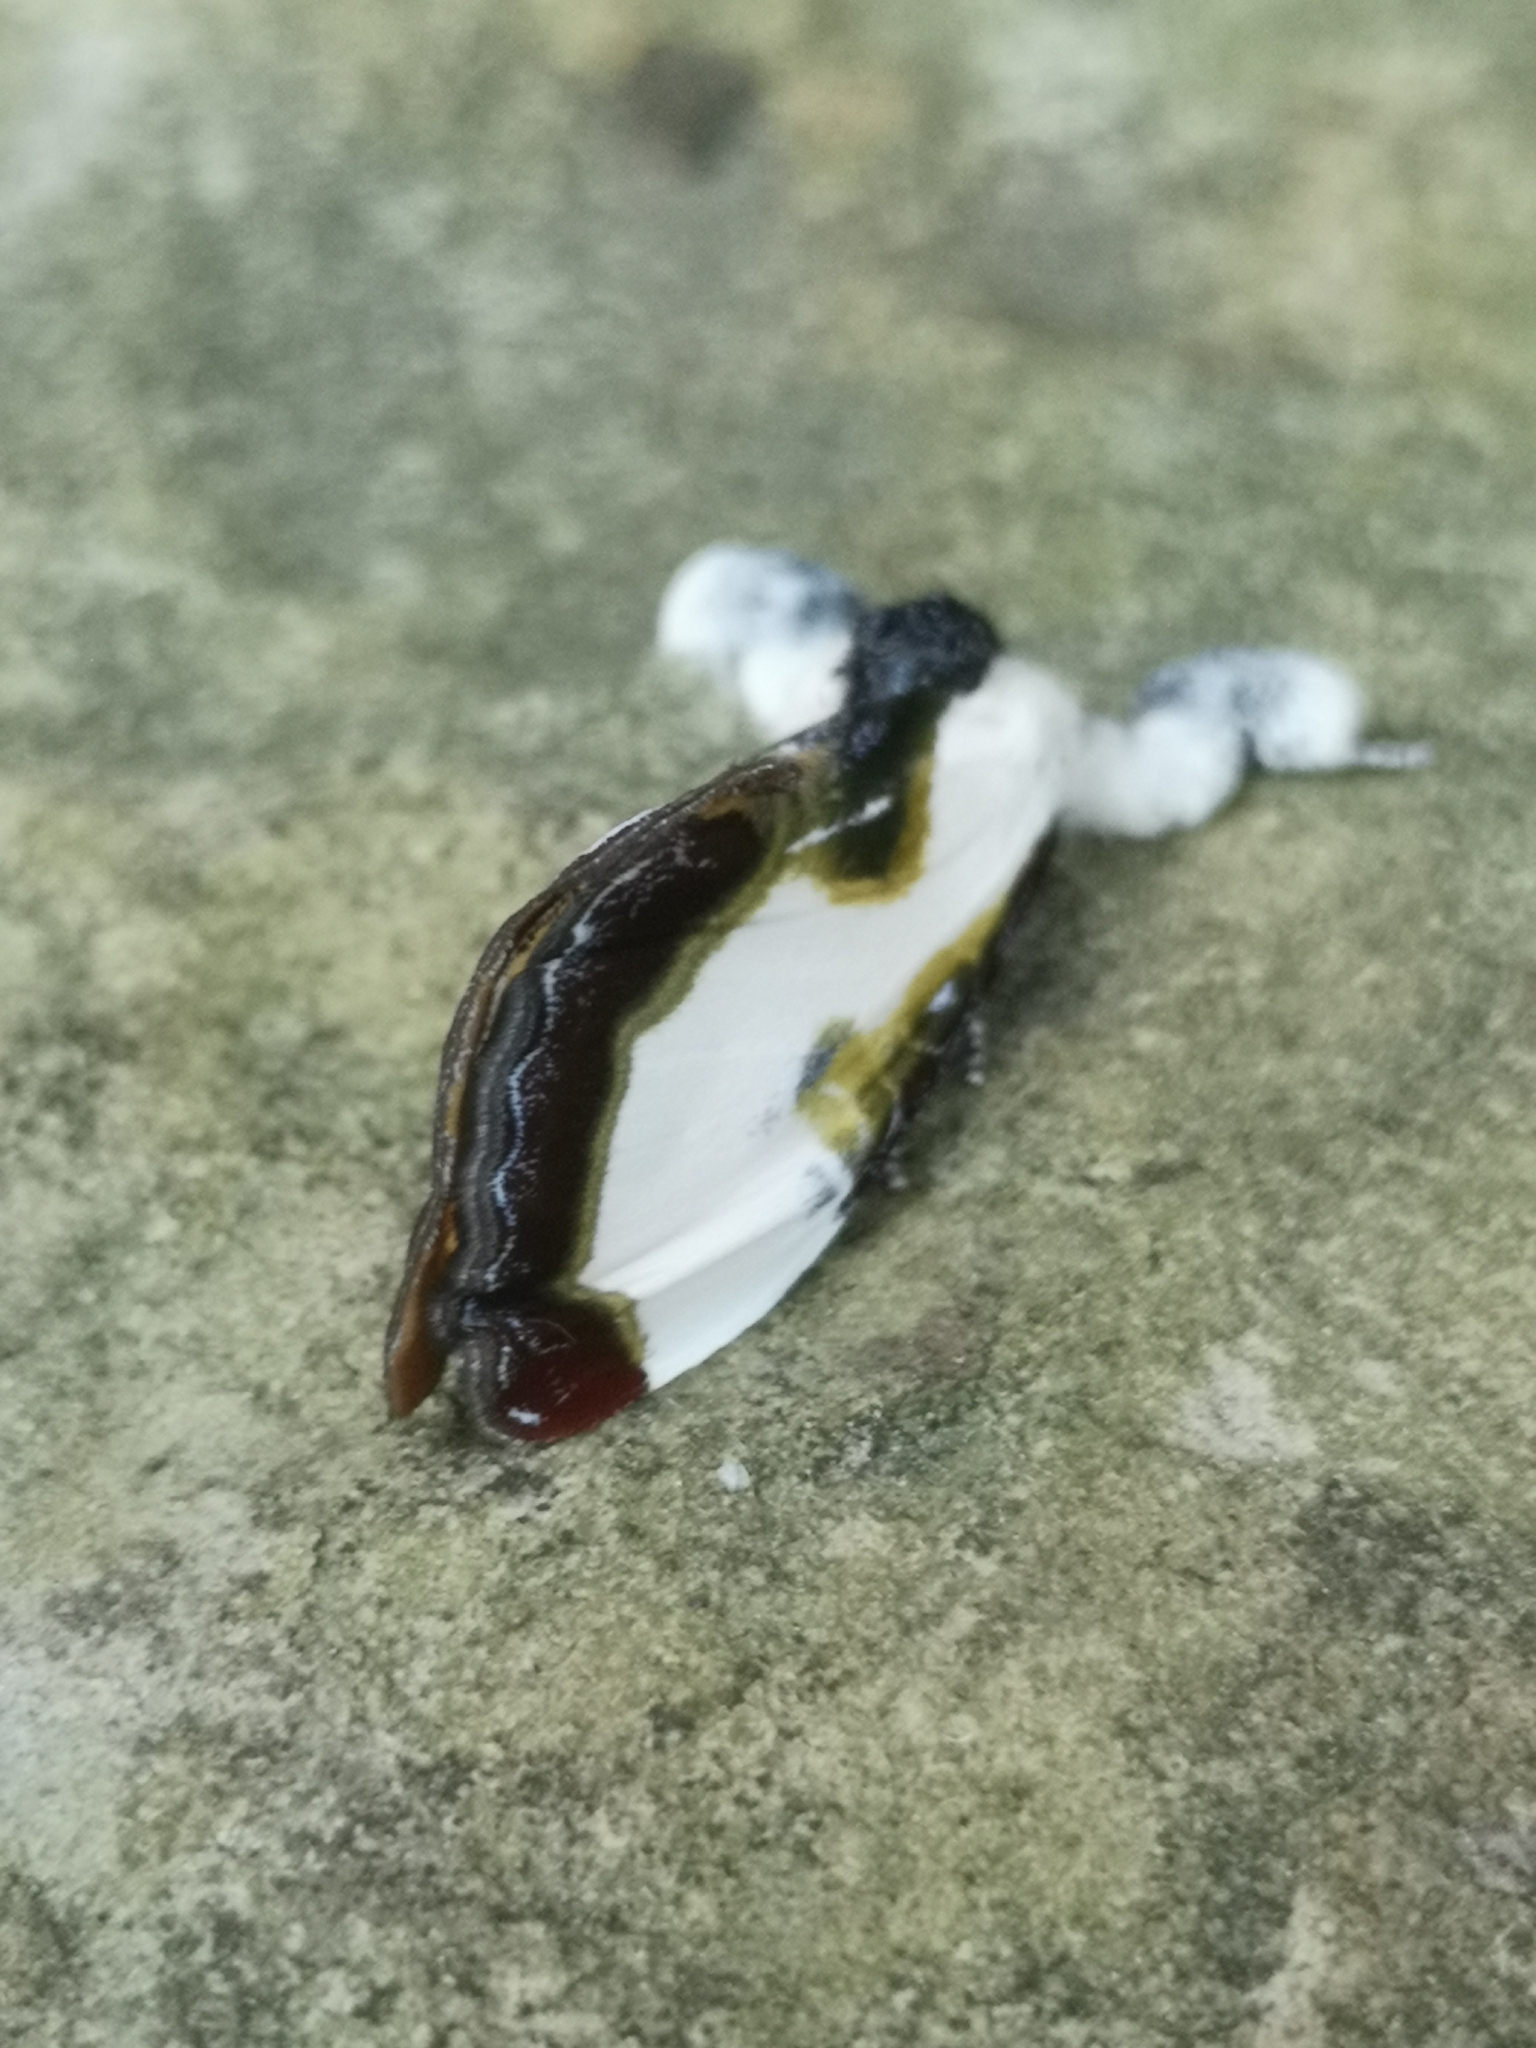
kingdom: Animalia
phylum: Arthropoda
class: Insecta
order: Lepidoptera
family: Noctuidae
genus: Eudryas
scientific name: Eudryas grata
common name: Beautiful wood-nymph
